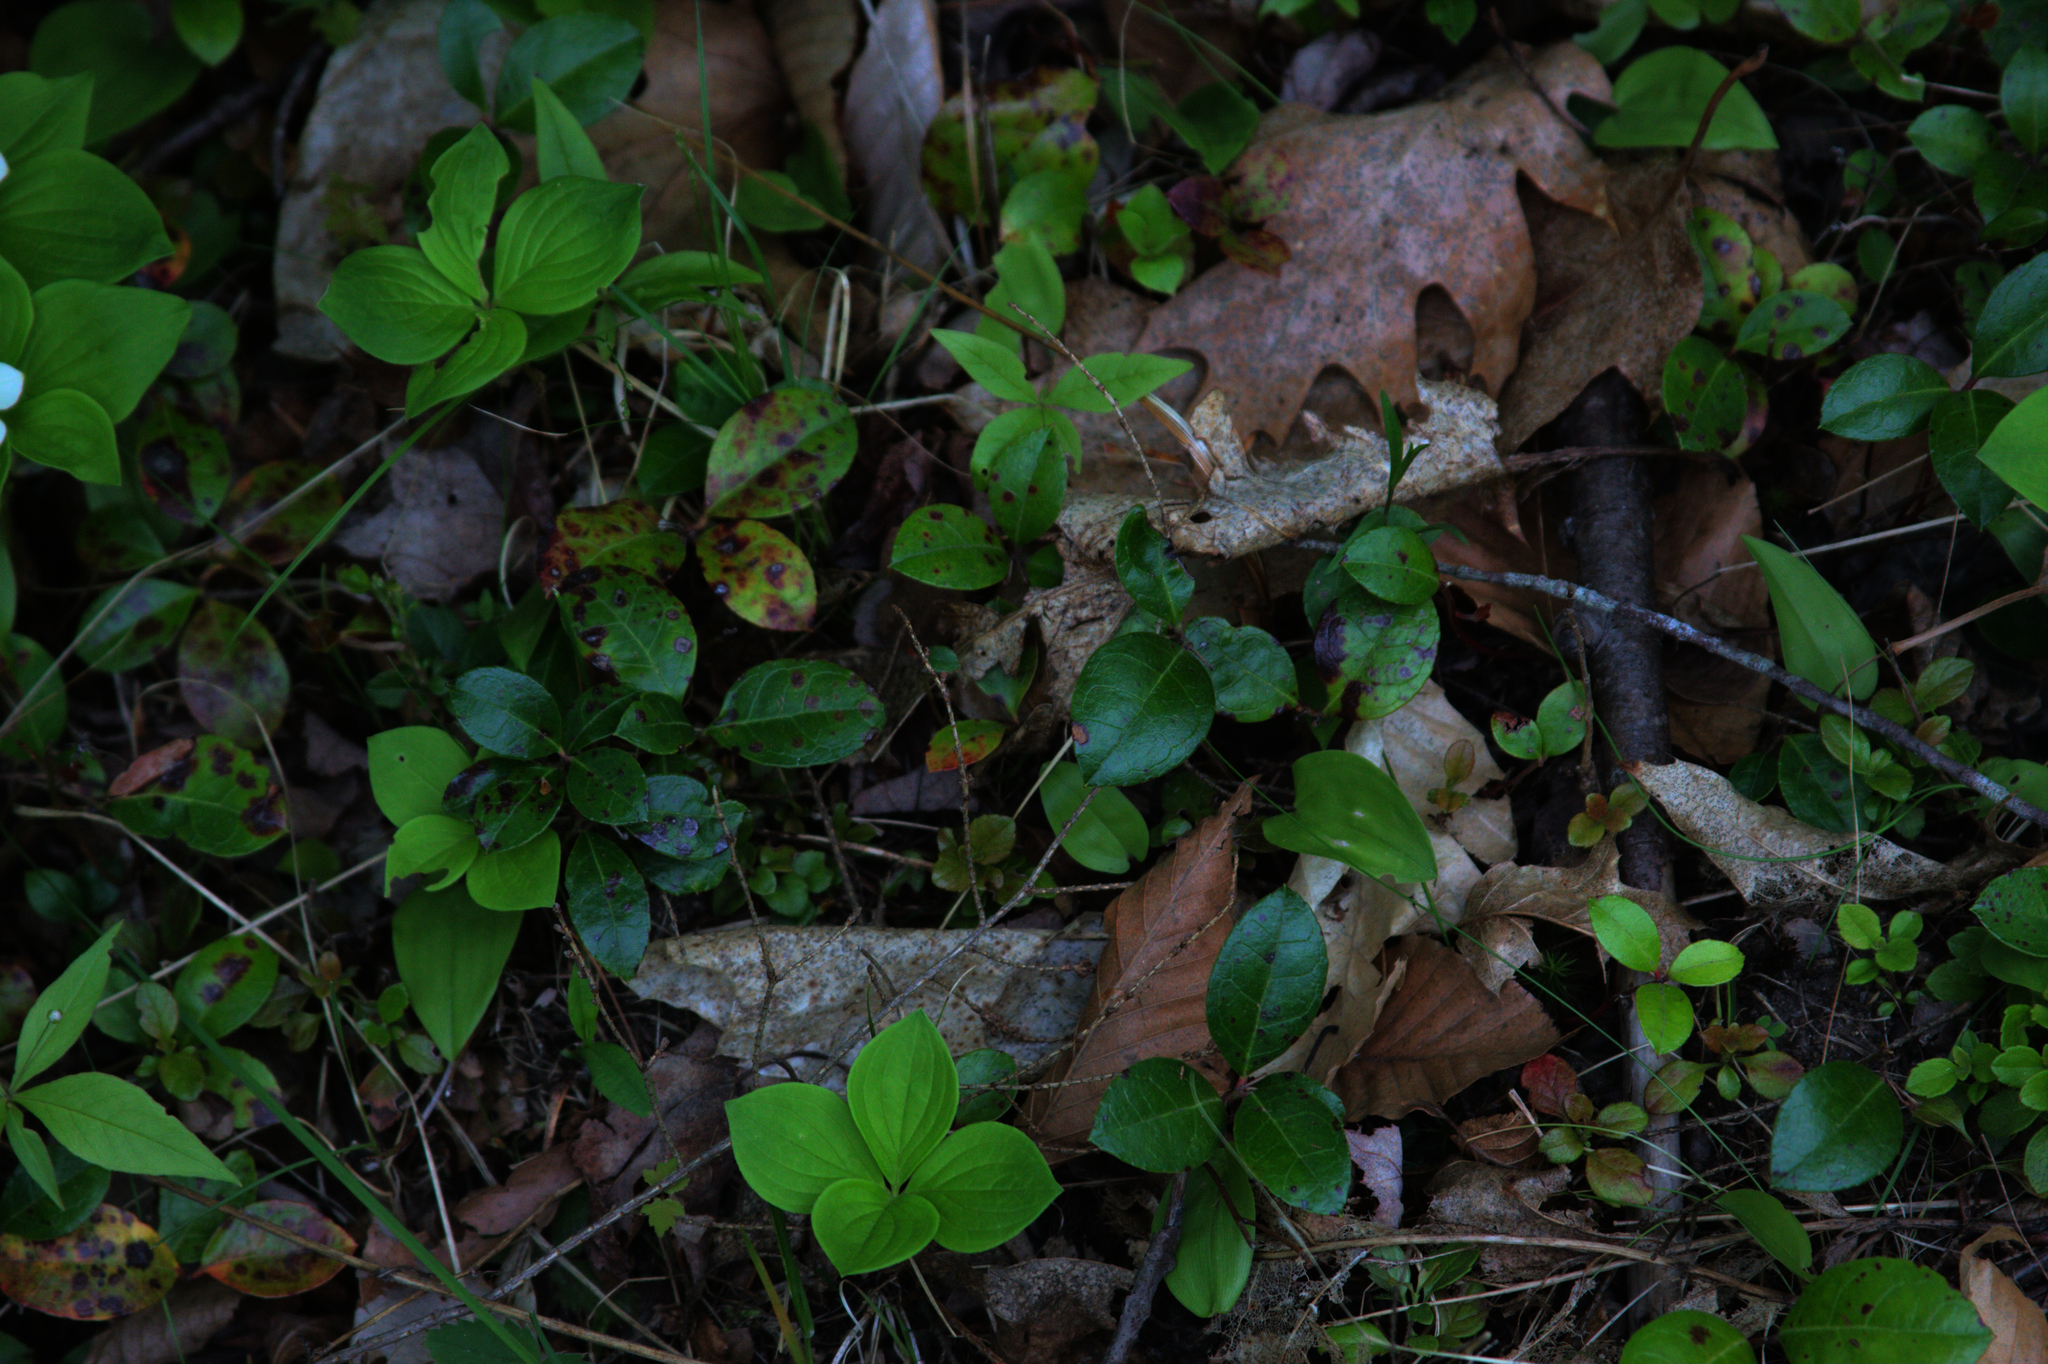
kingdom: Plantae
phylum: Tracheophyta
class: Magnoliopsida
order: Ericales
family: Ericaceae
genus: Gaultheria
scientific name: Gaultheria procumbens
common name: Checkerberry
